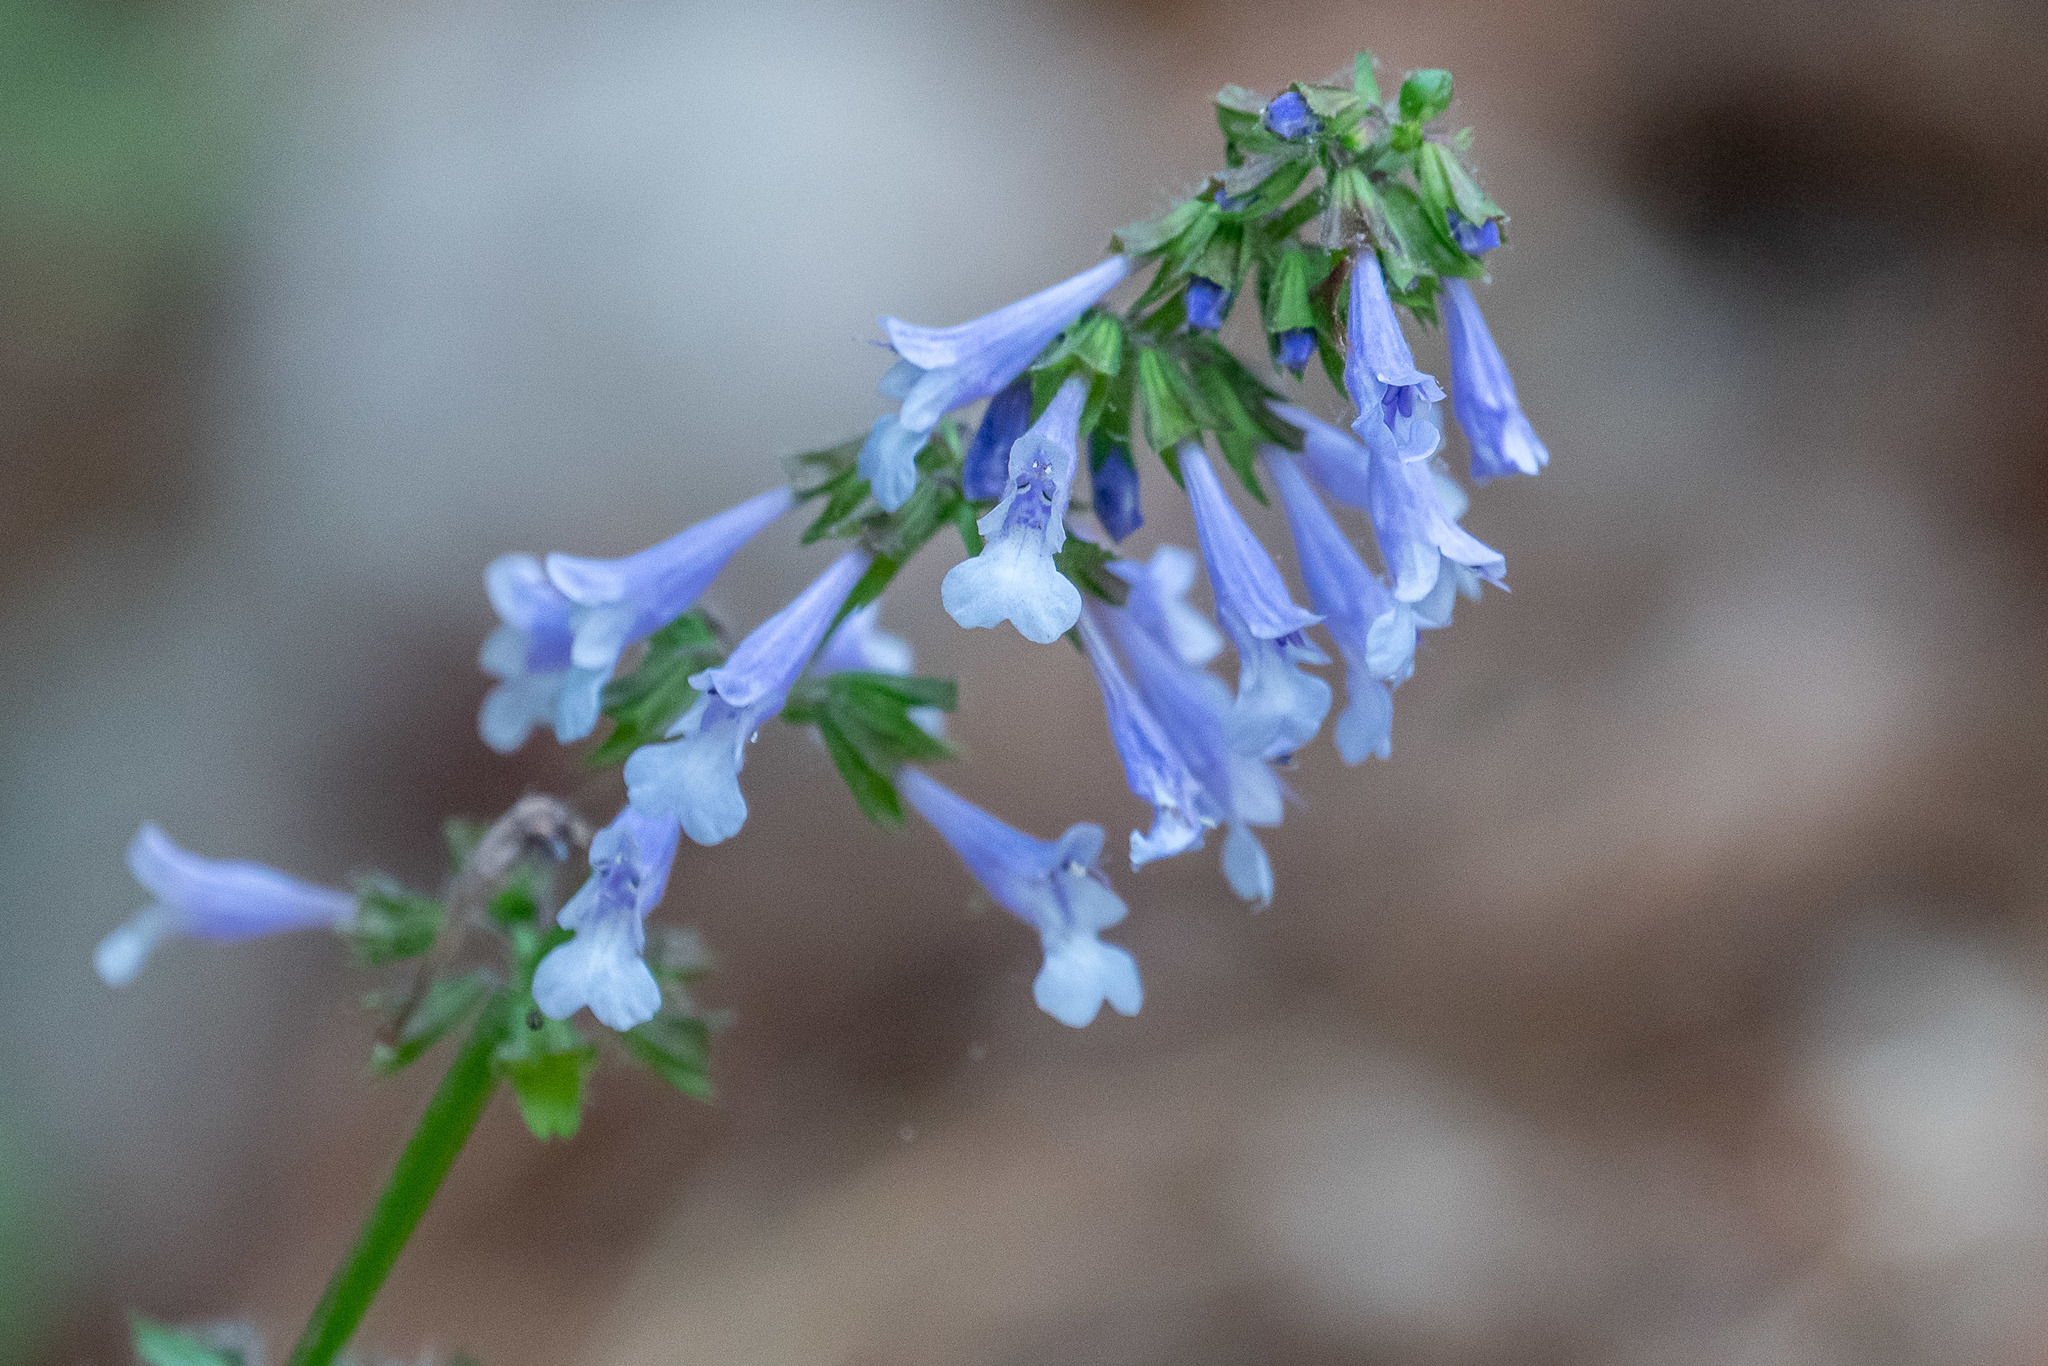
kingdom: Plantae
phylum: Tracheophyta
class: Magnoliopsida
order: Lamiales
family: Lamiaceae
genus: Salvia
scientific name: Salvia lyrata
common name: Cancerweed
